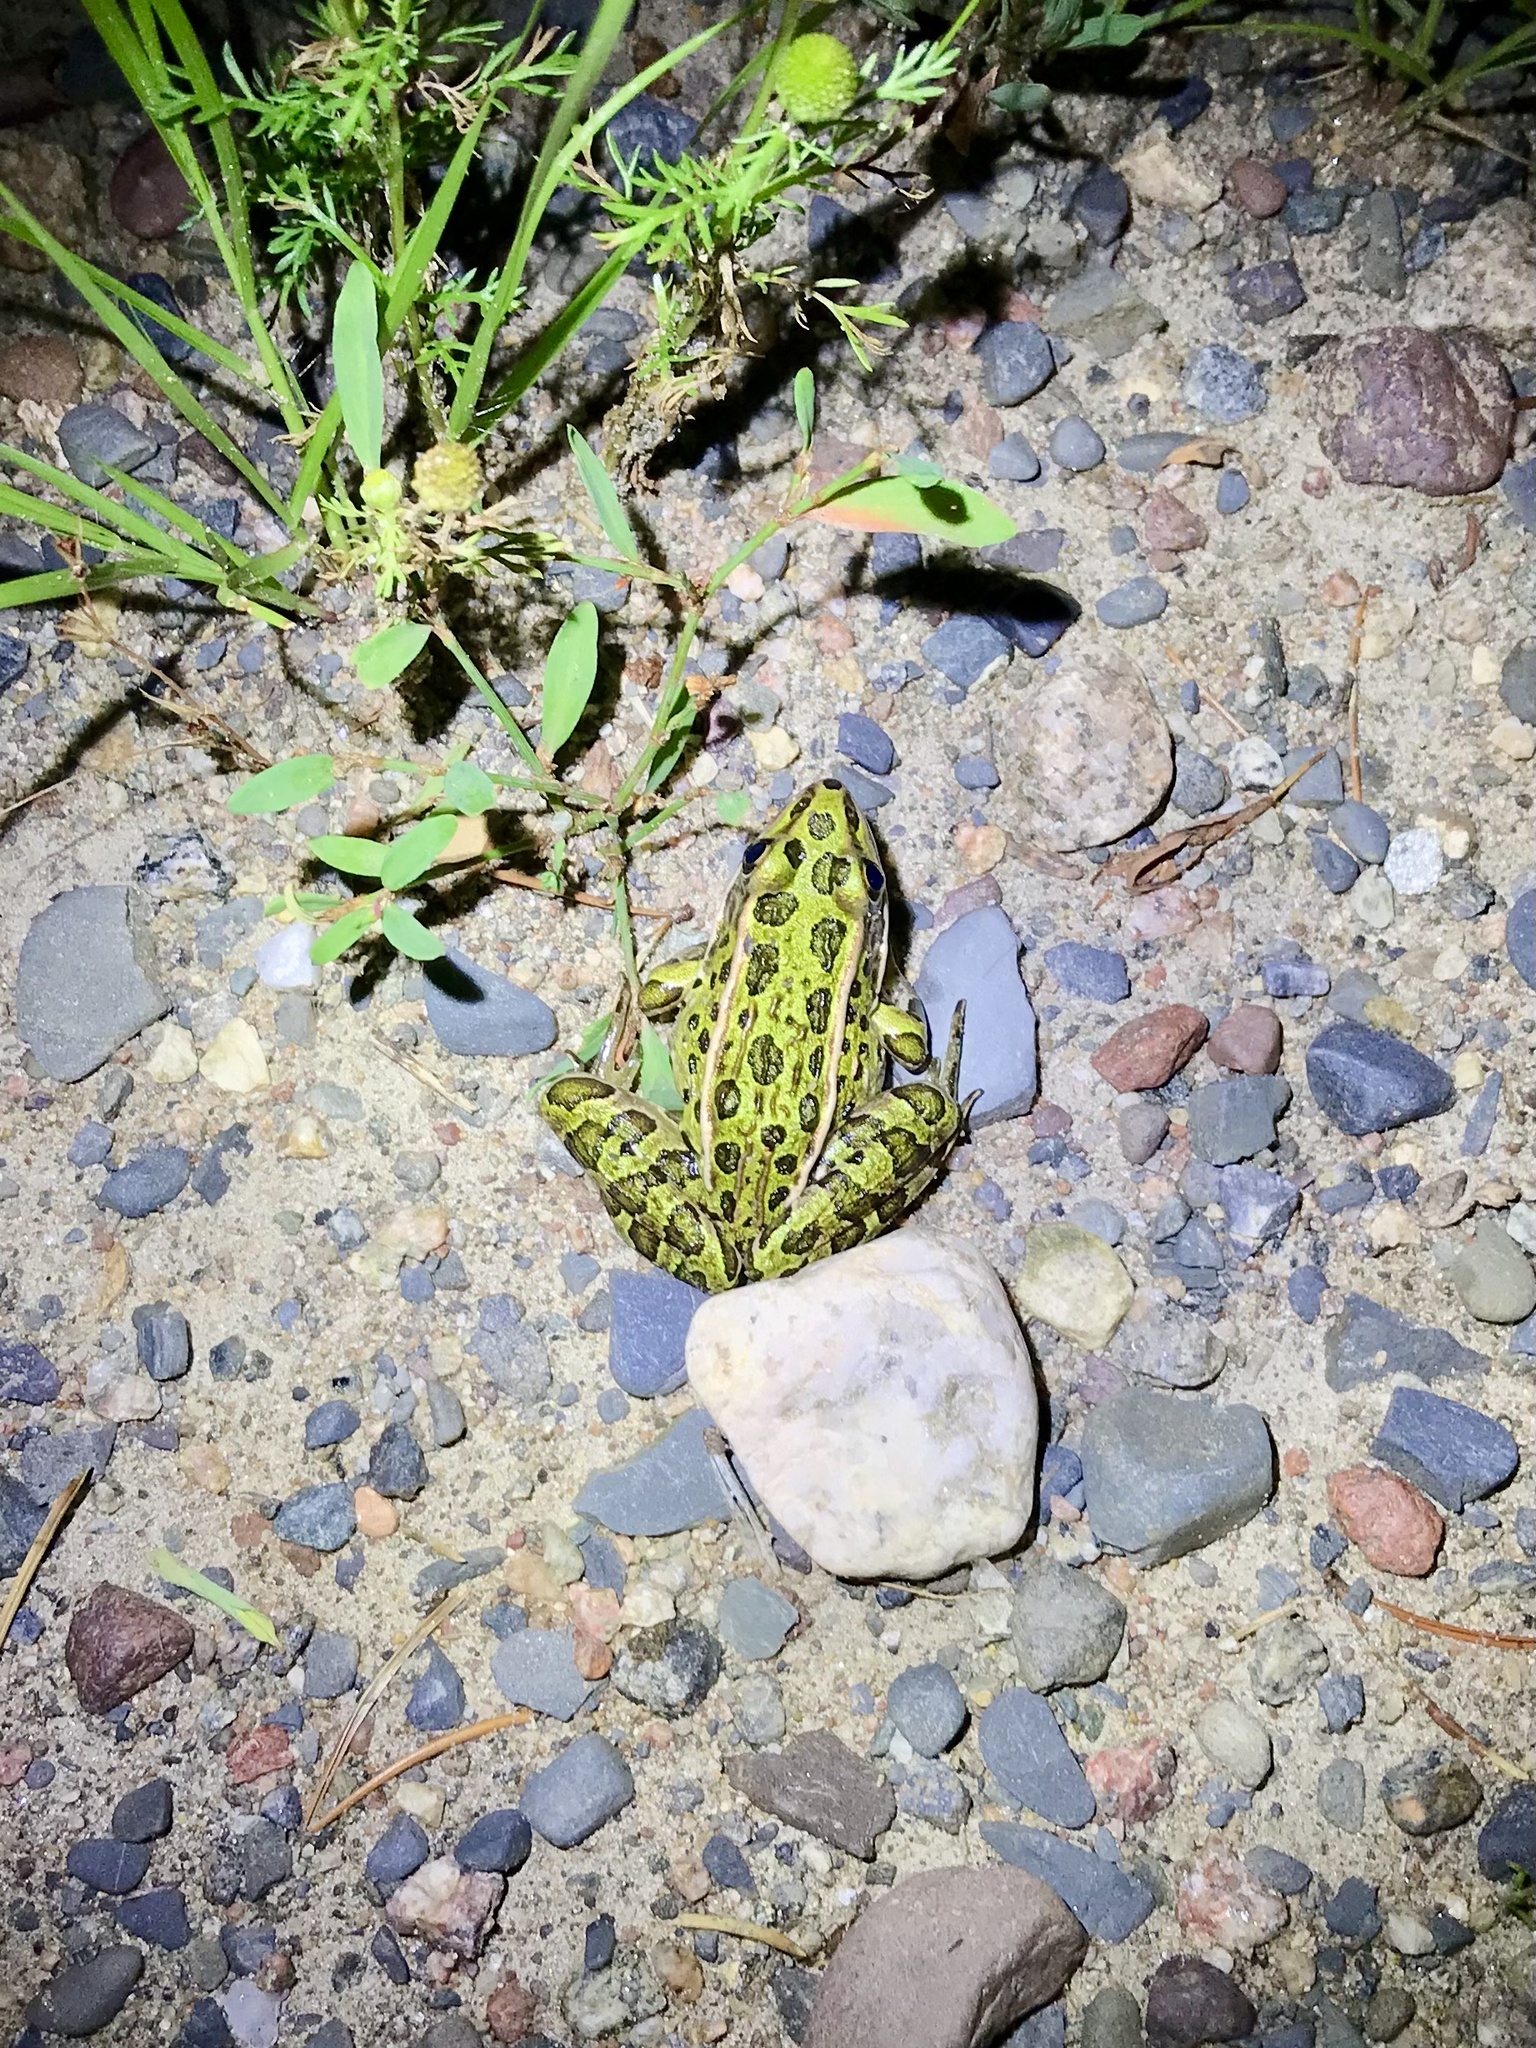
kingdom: Animalia
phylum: Chordata
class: Amphibia
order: Anura
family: Ranidae
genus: Lithobates
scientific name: Lithobates pipiens
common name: Northern leopard frog
